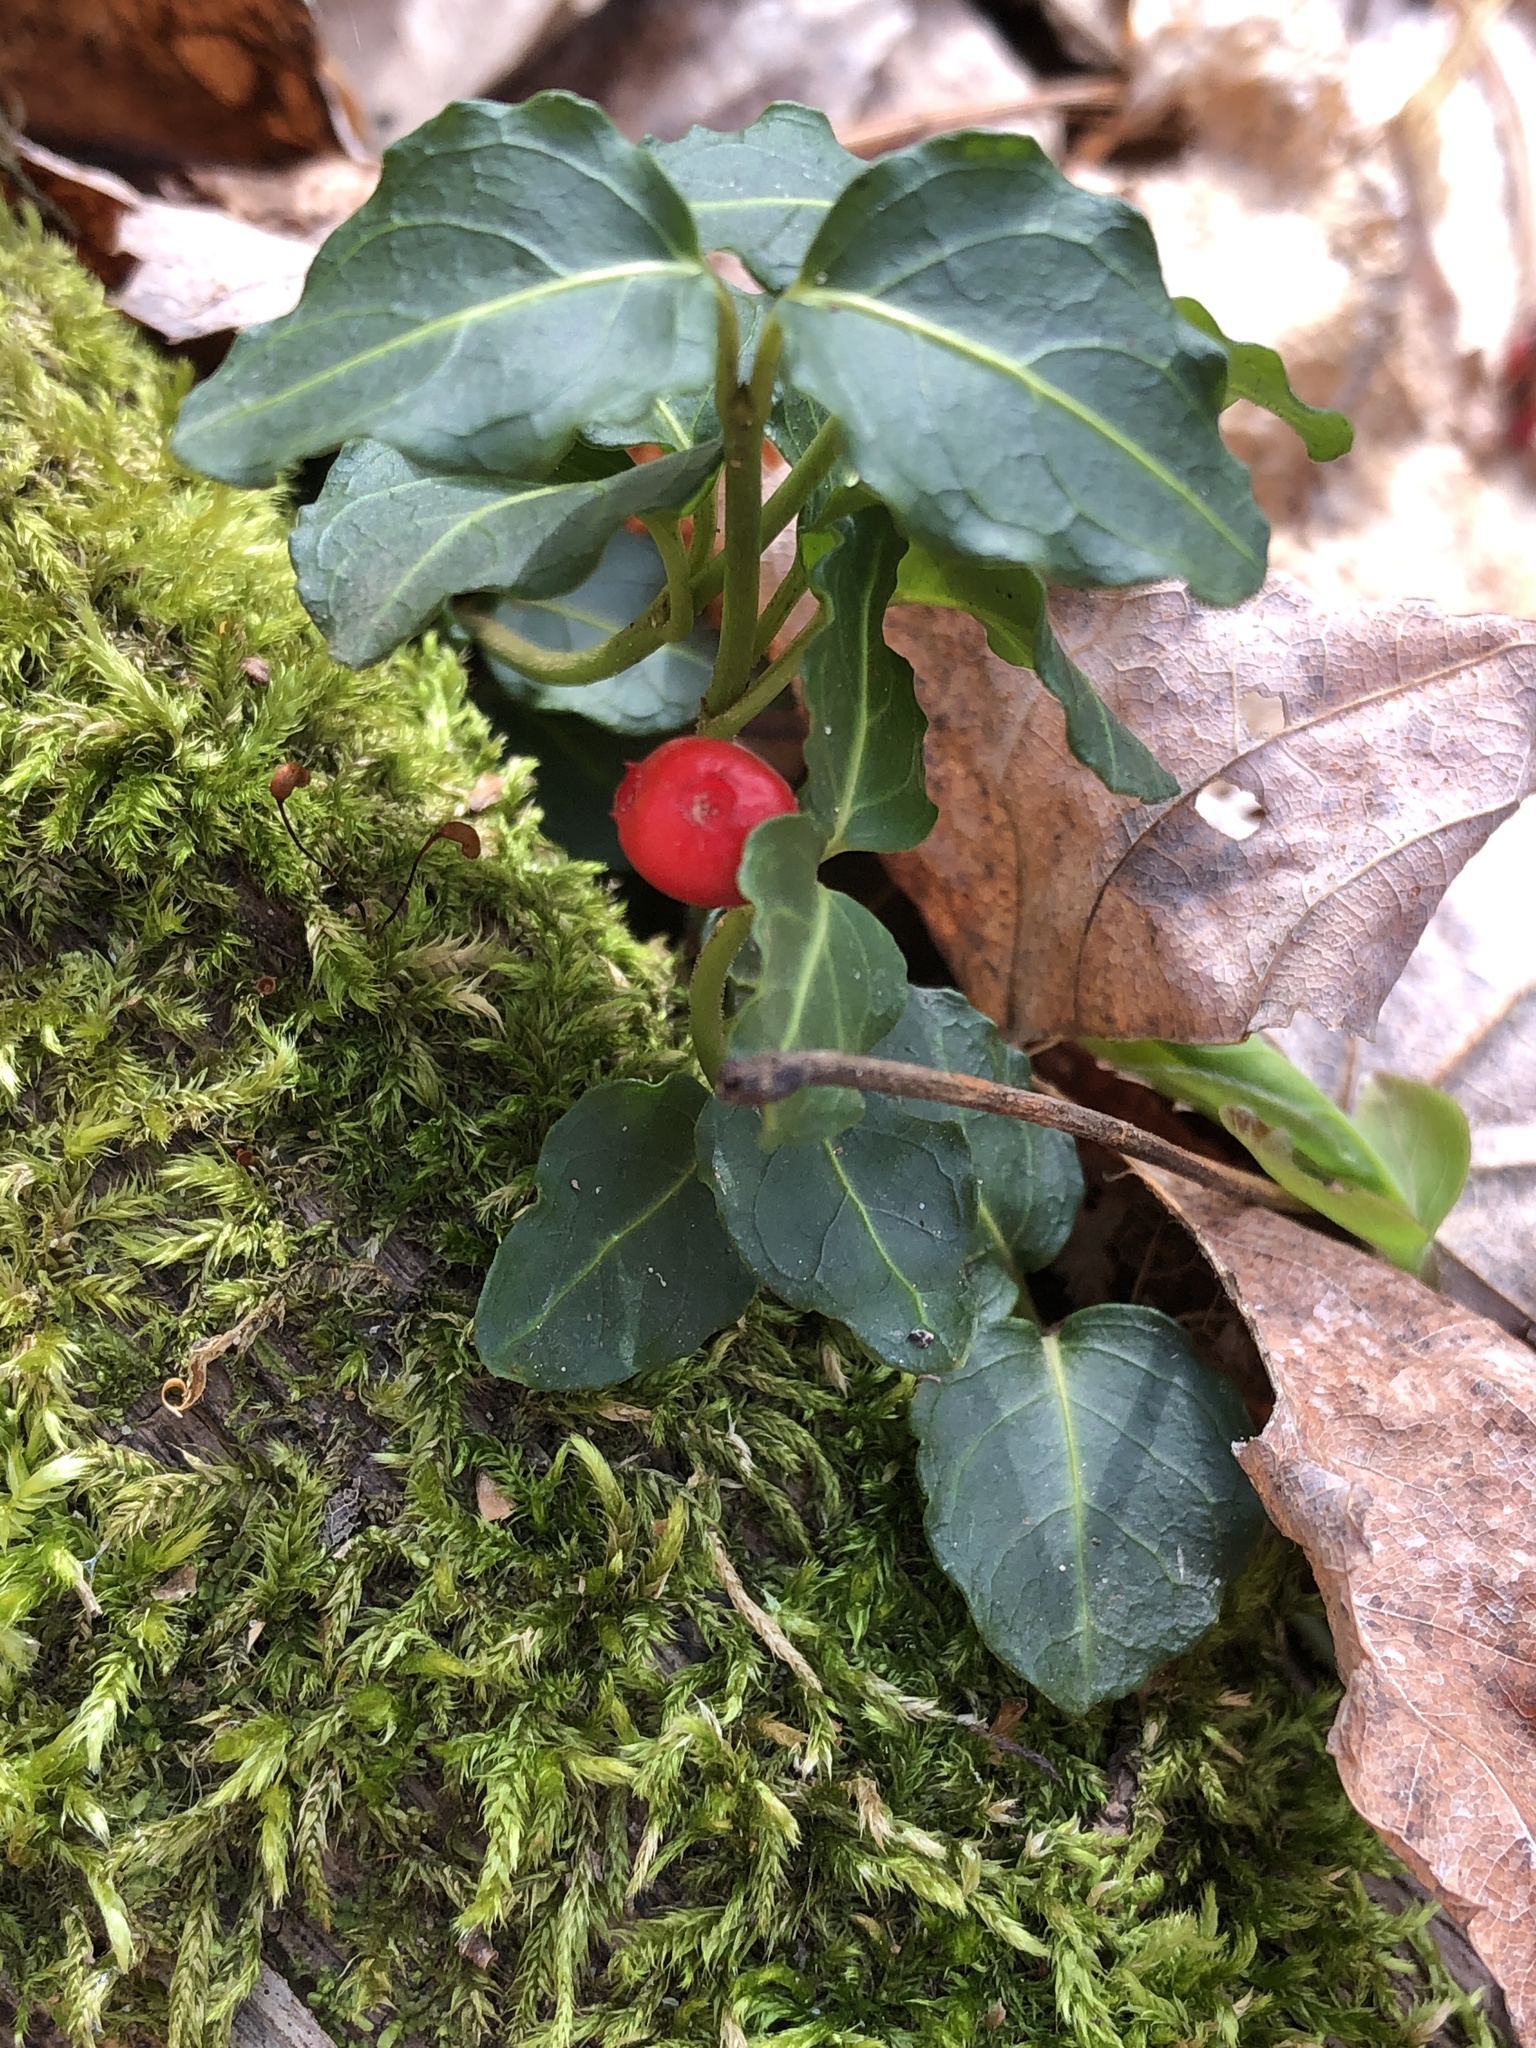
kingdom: Plantae
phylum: Tracheophyta
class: Magnoliopsida
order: Gentianales
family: Rubiaceae
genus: Mitchella
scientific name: Mitchella repens
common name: Partridge-berry
